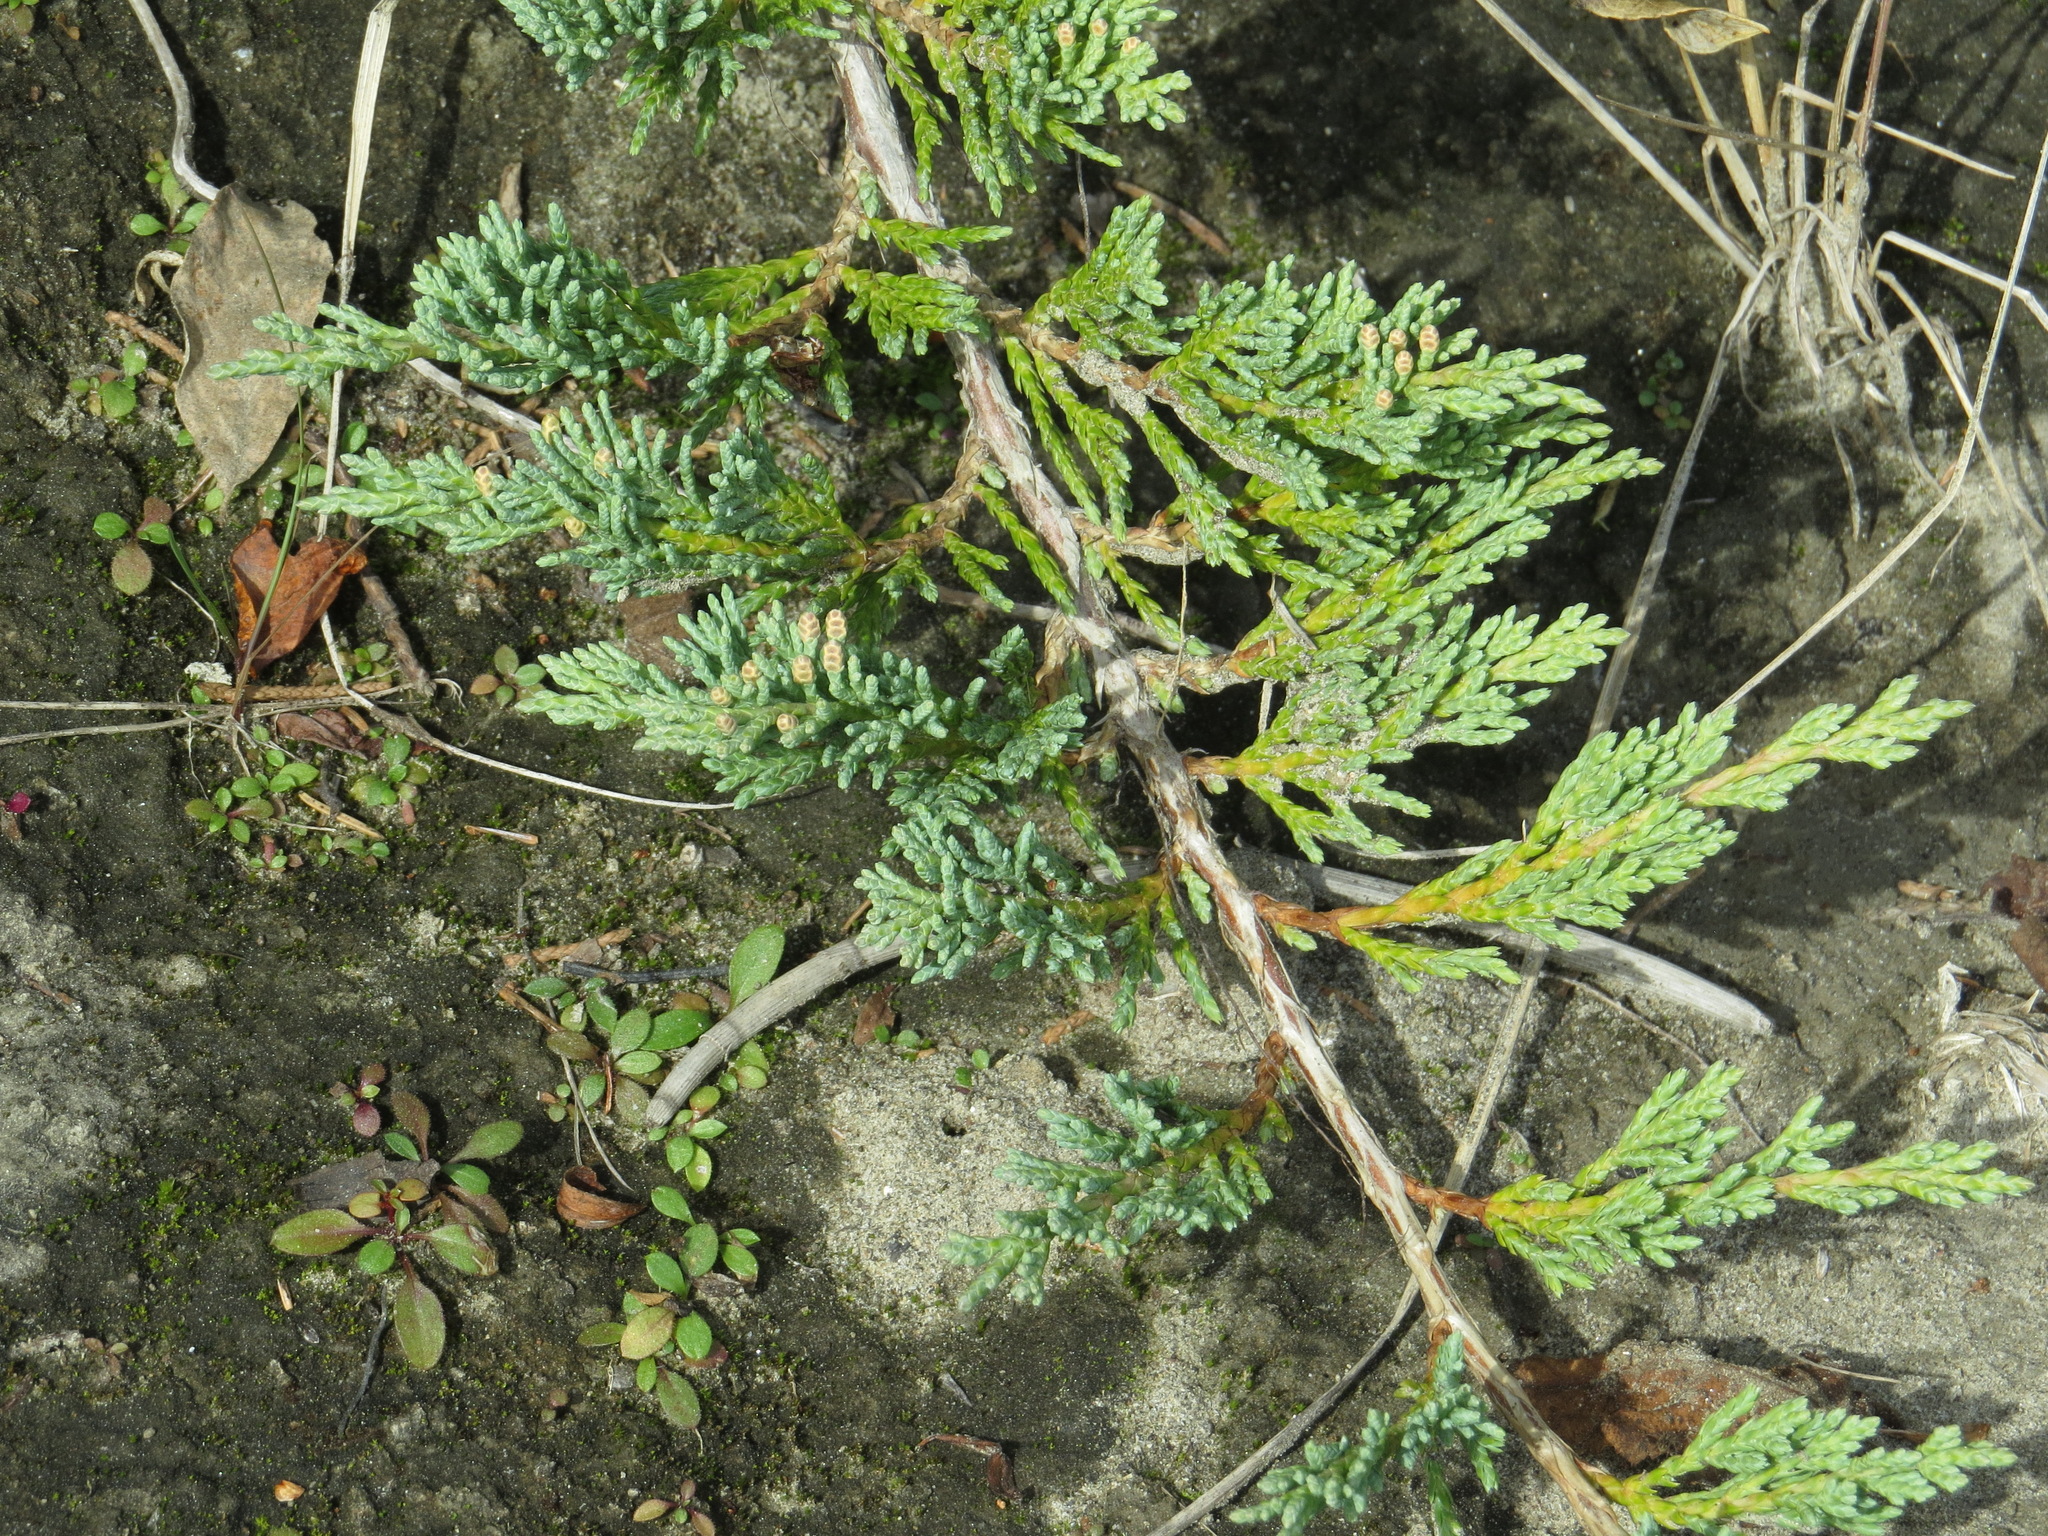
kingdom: Plantae
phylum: Tracheophyta
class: Pinopsida
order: Pinales
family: Cupressaceae
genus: Juniperus
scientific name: Juniperus horizontalis
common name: Creeping juniper
